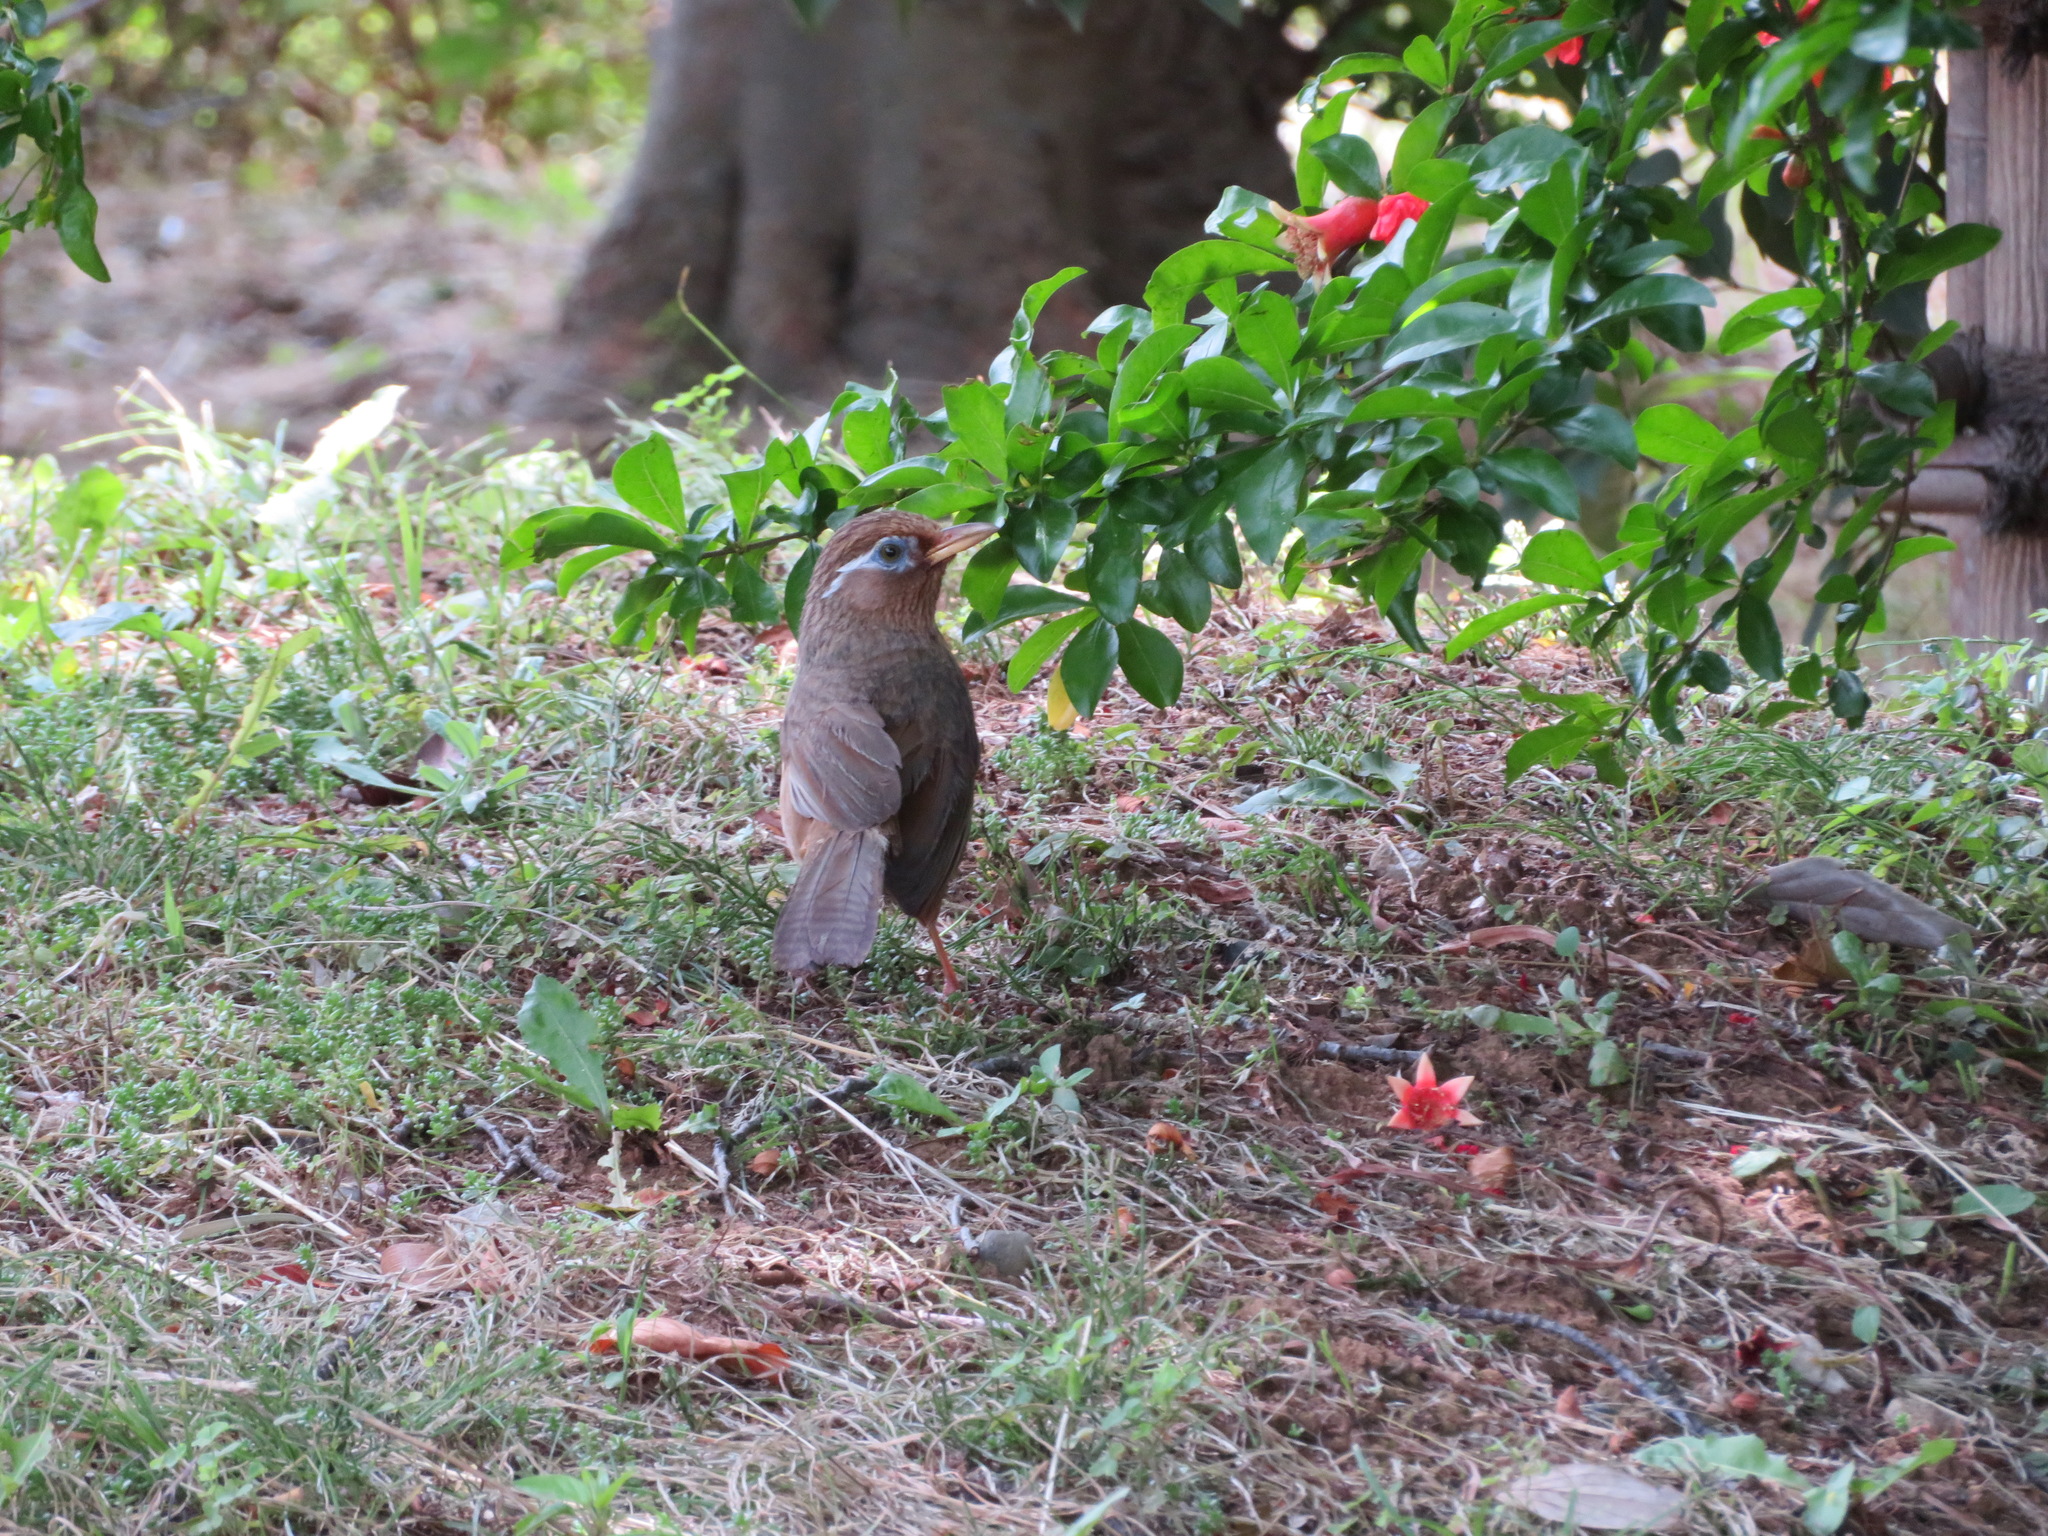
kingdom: Animalia
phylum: Chordata
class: Aves
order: Passeriformes
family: Leiothrichidae
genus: Garrulax
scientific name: Garrulax canorus
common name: Chinese hwamei
